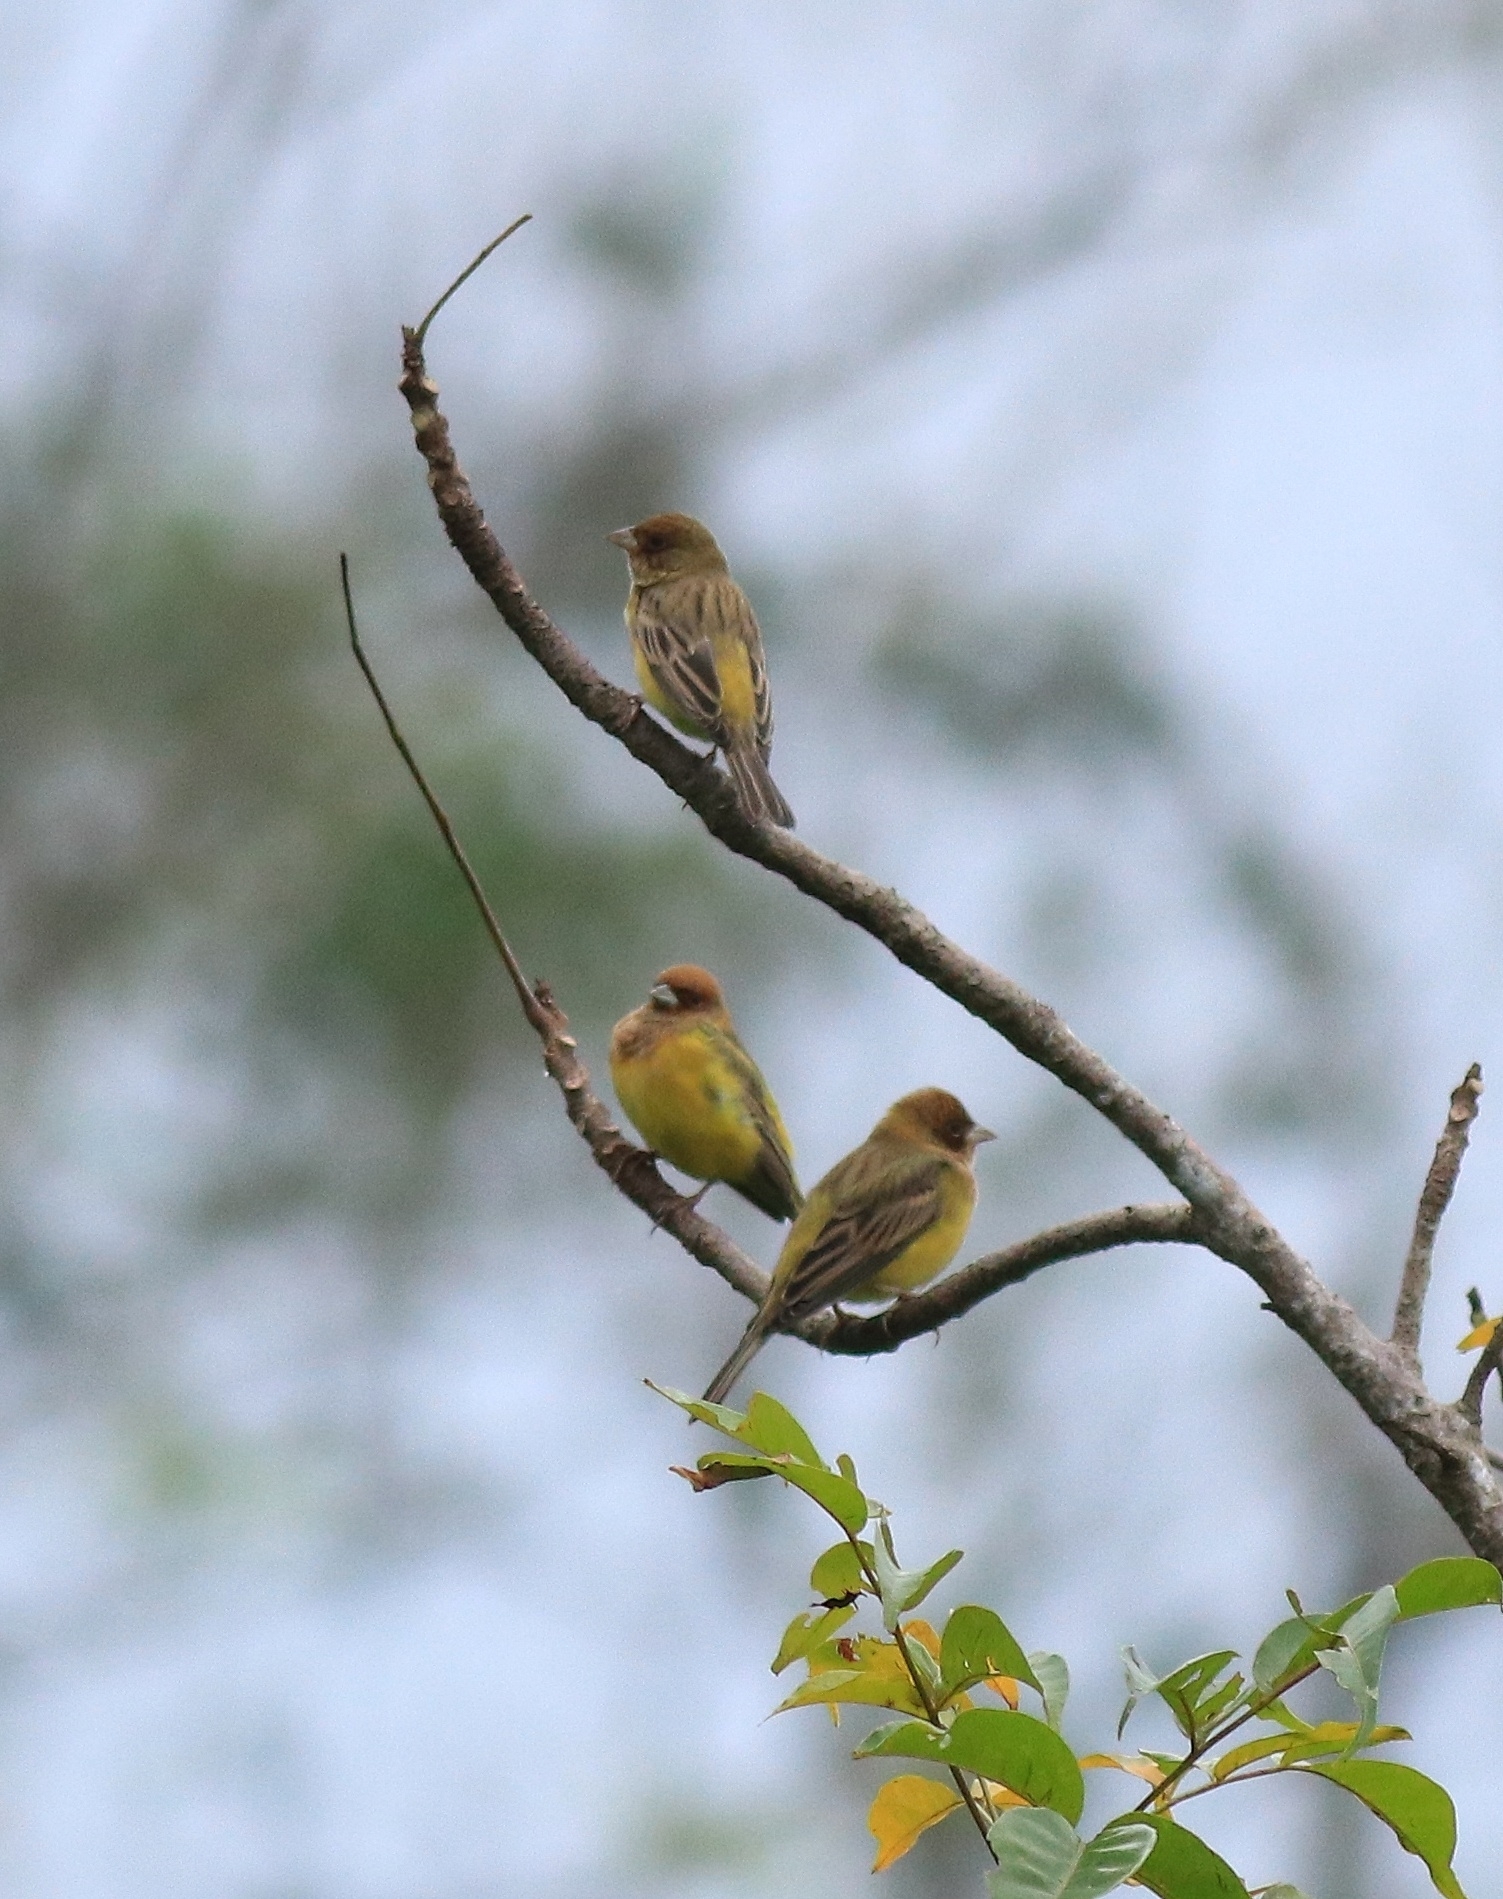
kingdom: Animalia
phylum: Chordata
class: Aves
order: Passeriformes
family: Emberizidae
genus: Emberiza
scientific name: Emberiza bruniceps
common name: Red-headed bunting
